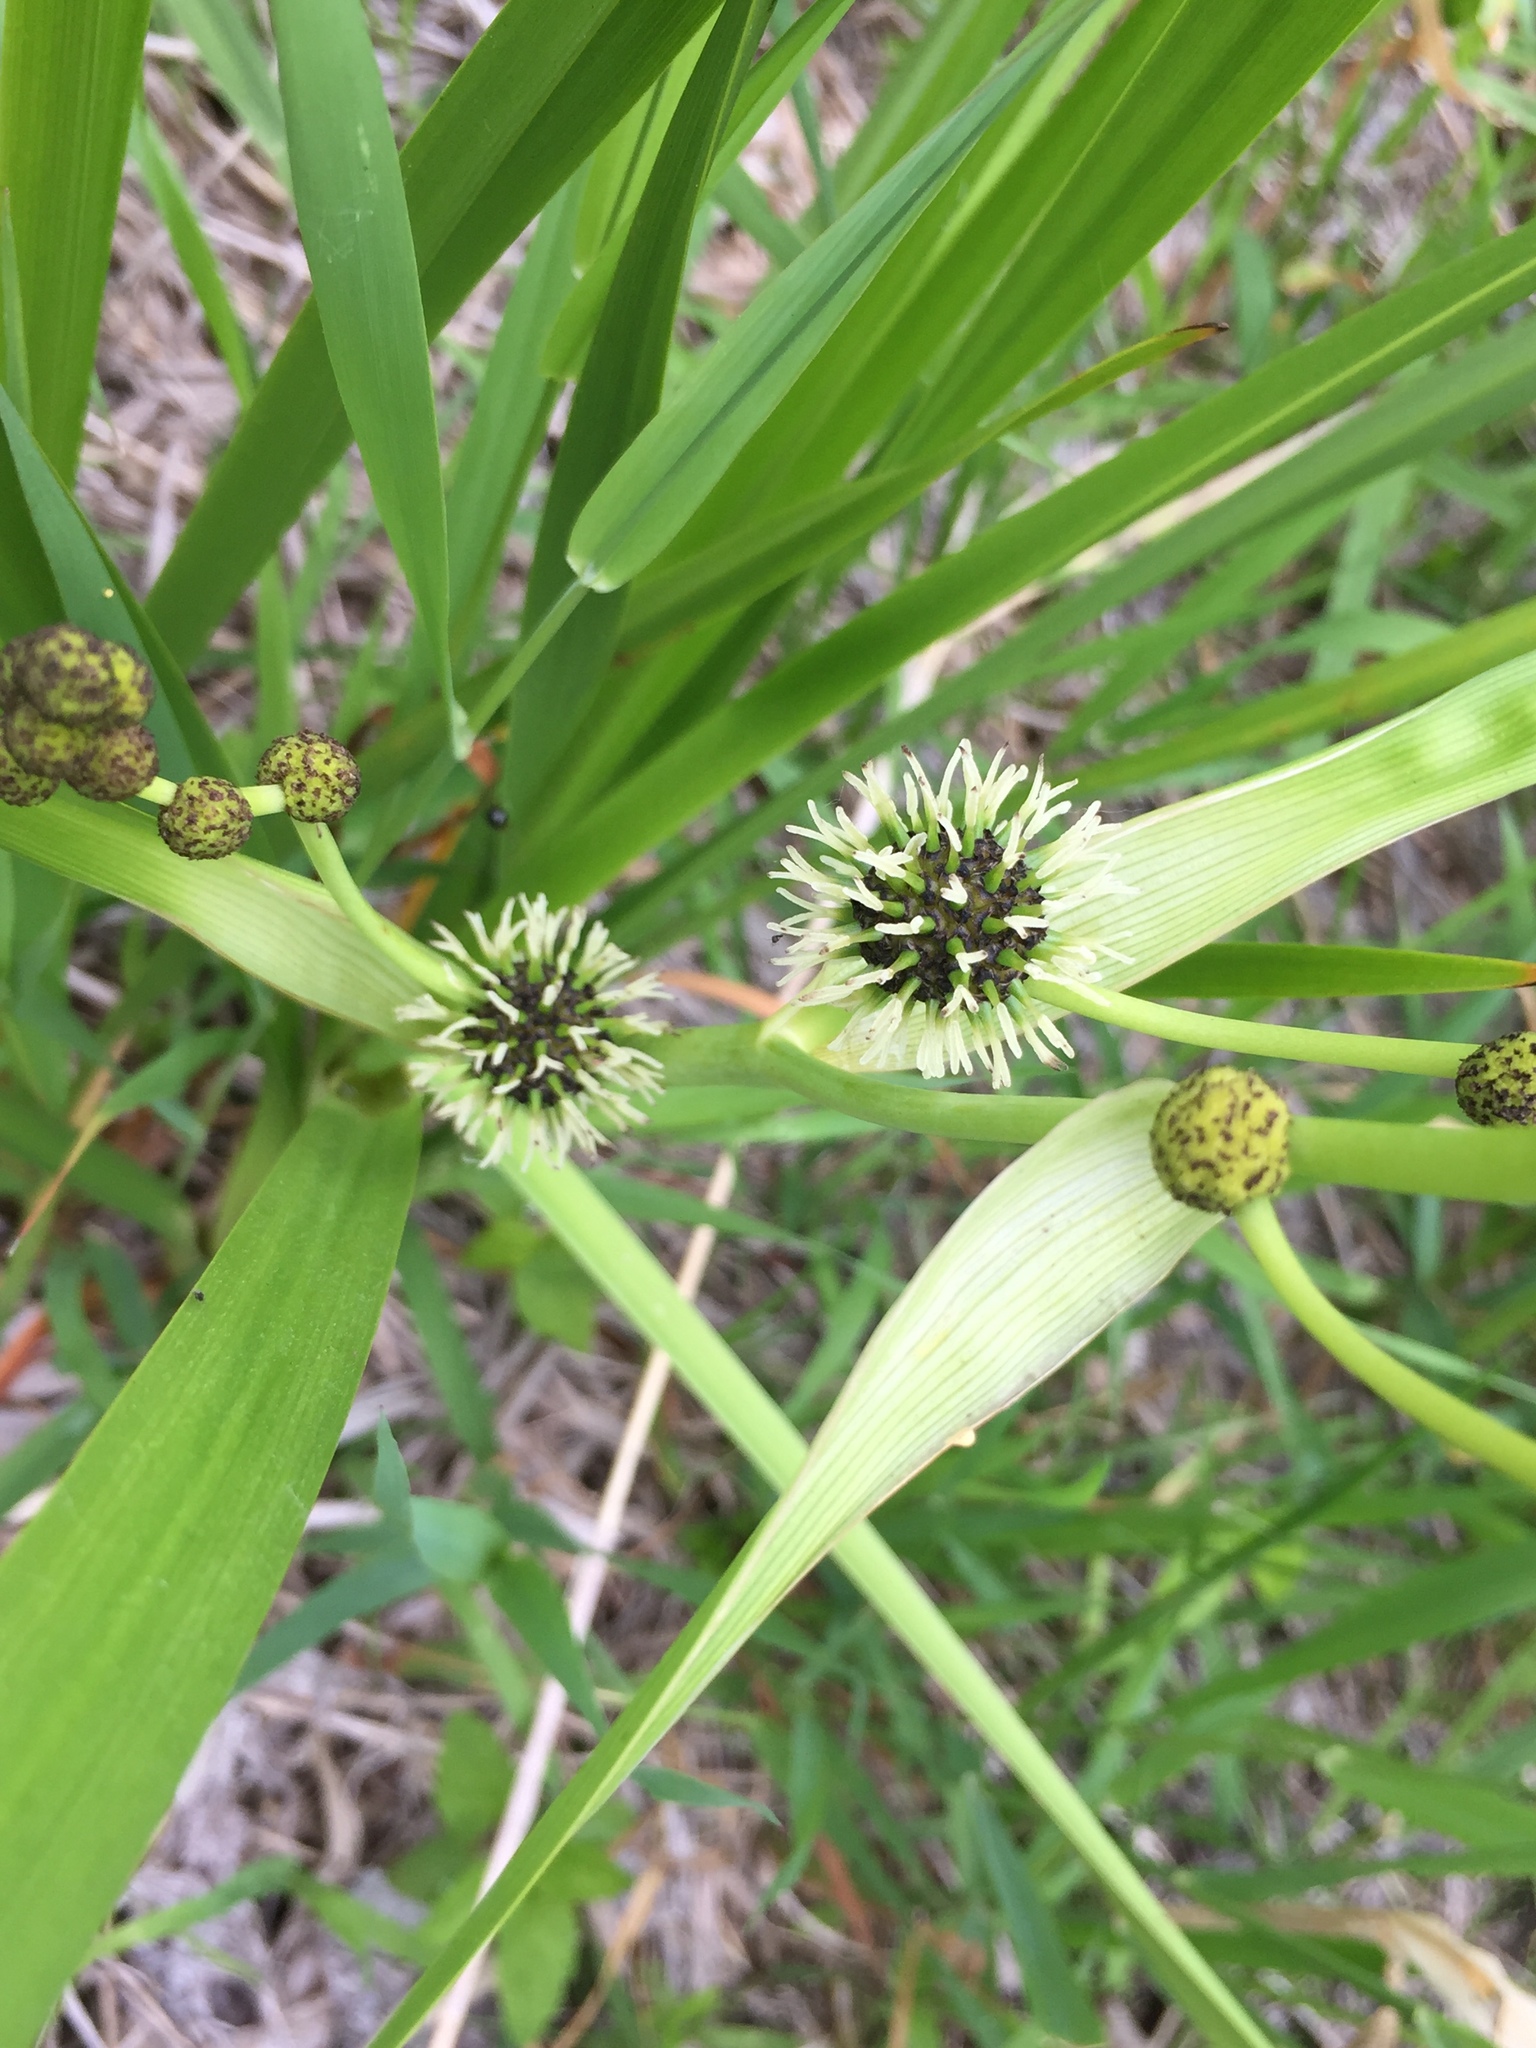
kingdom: Plantae
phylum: Tracheophyta
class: Liliopsida
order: Poales
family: Typhaceae
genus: Sparganium
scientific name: Sparganium eurycarpum
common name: Broad-fruited burreed
